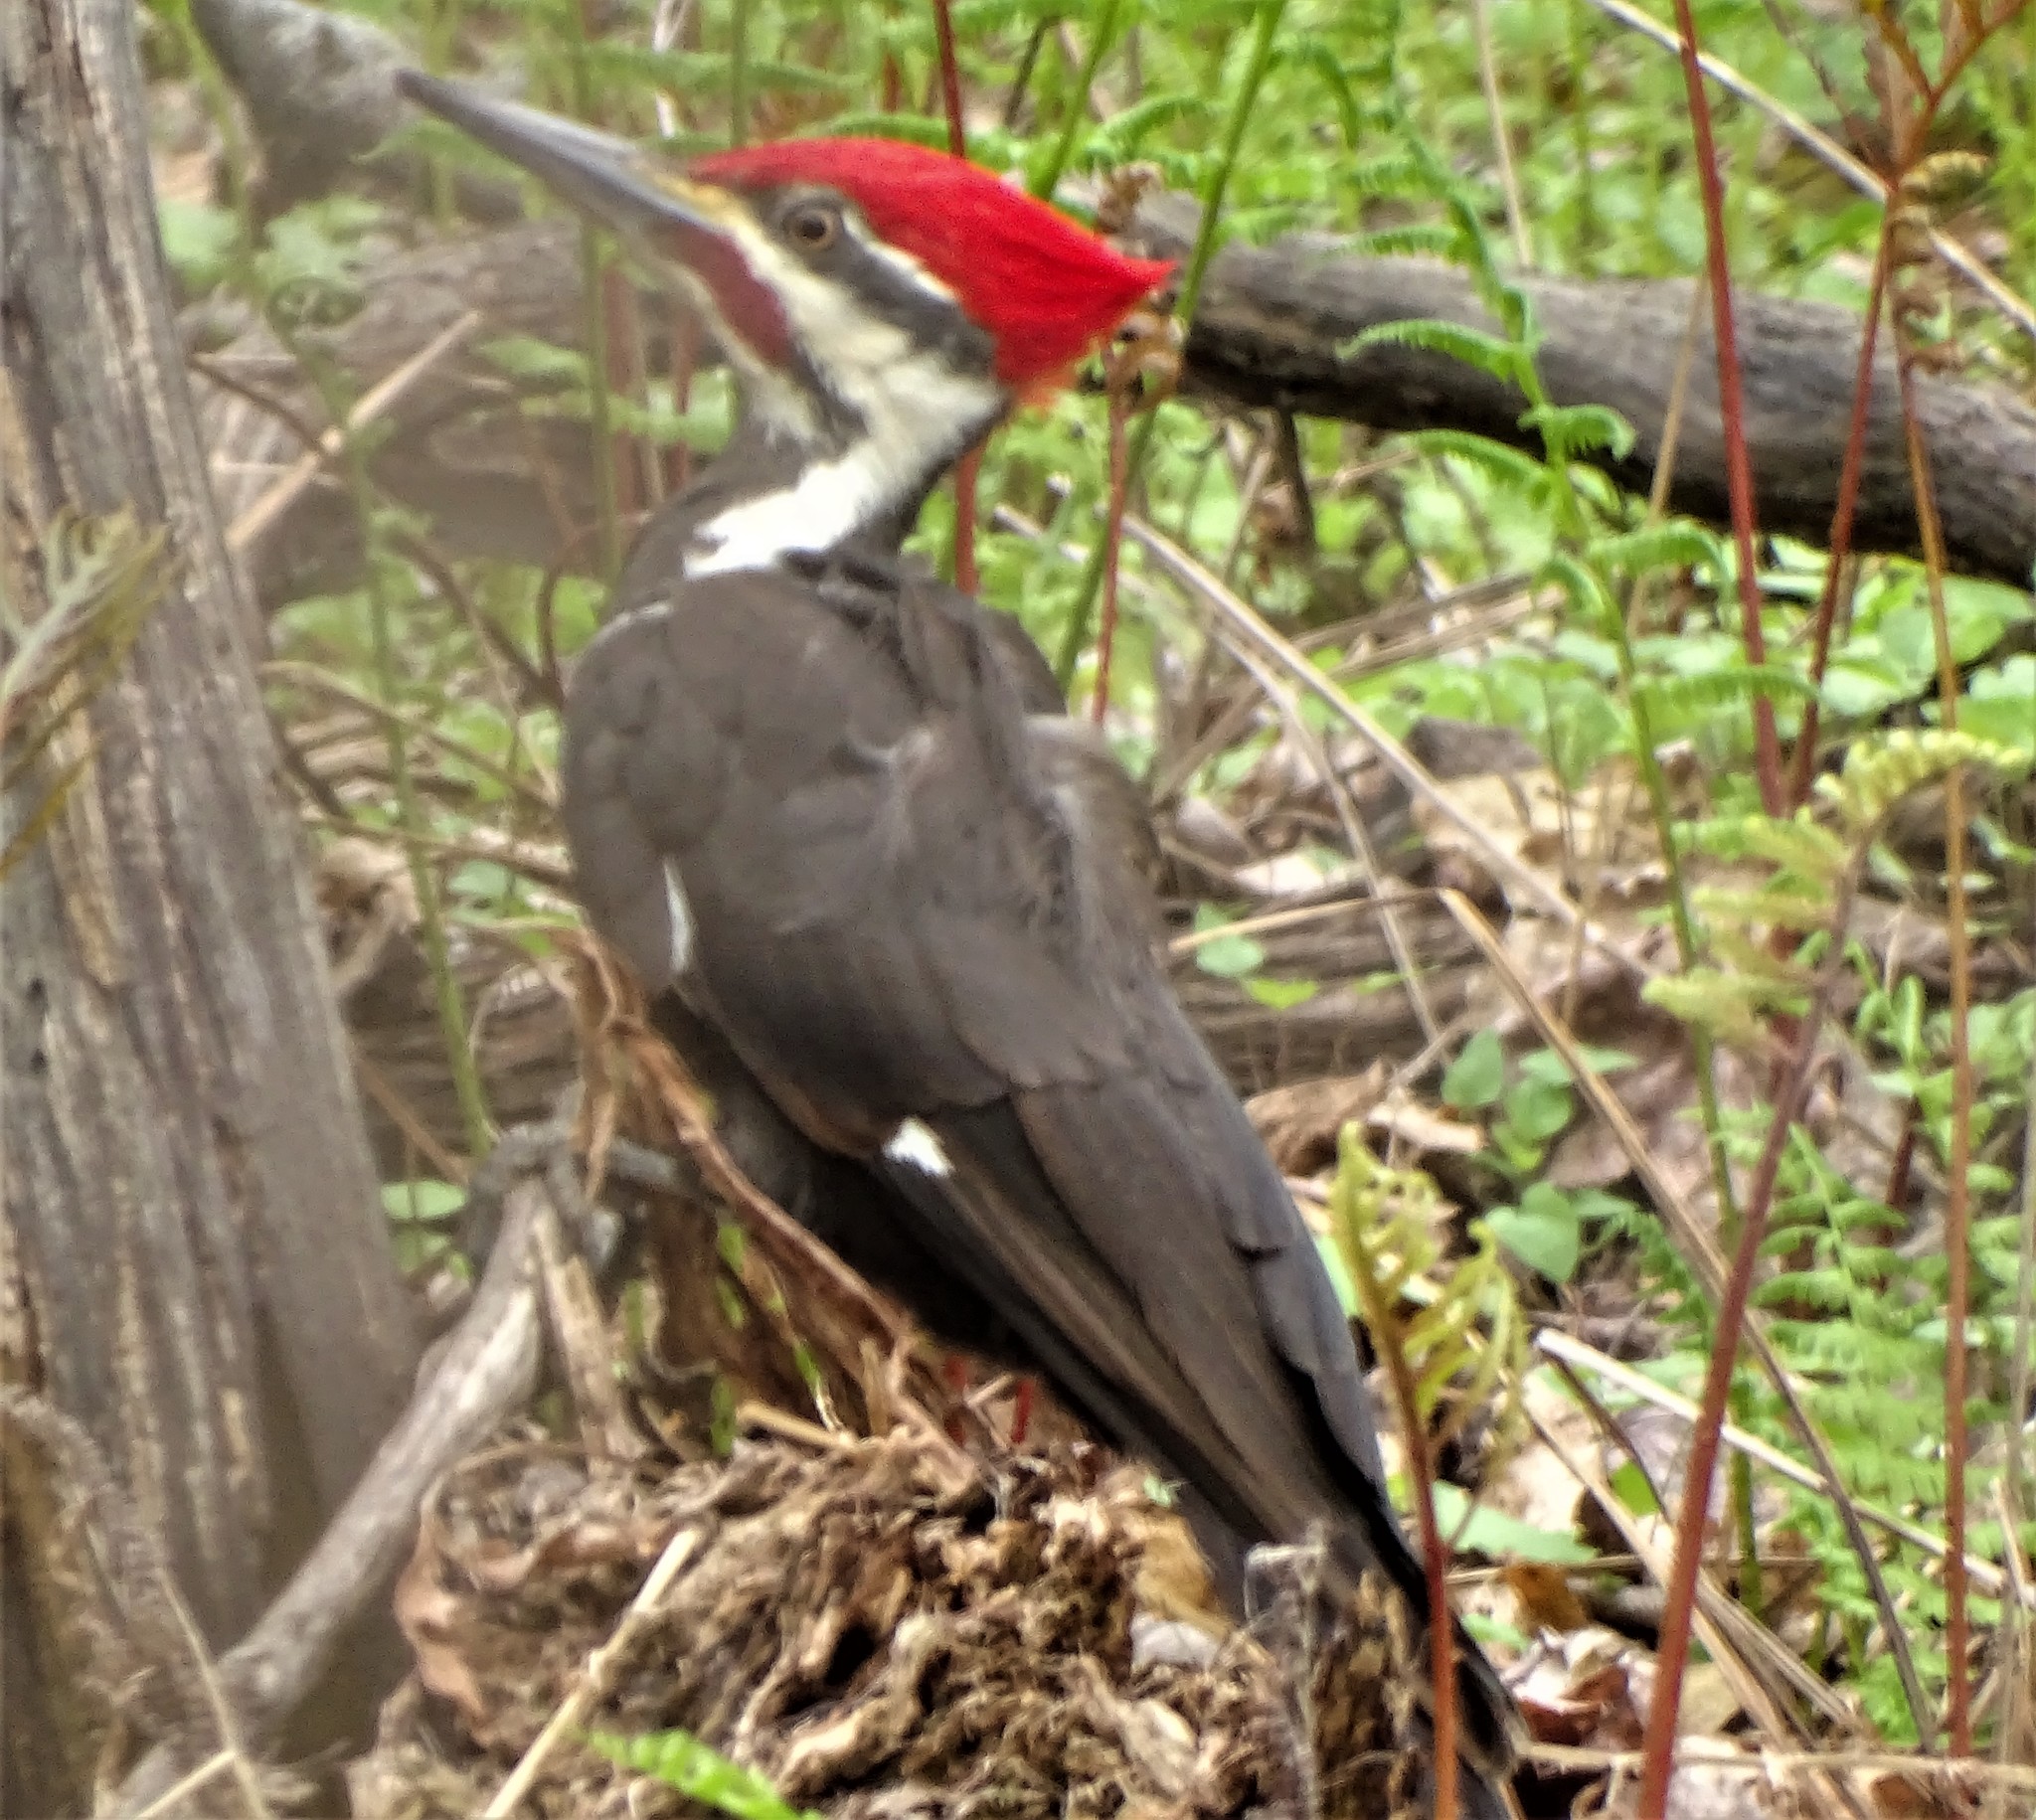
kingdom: Animalia
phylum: Chordata
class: Aves
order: Piciformes
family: Picidae
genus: Dryocopus
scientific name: Dryocopus pileatus
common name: Pileated woodpecker
